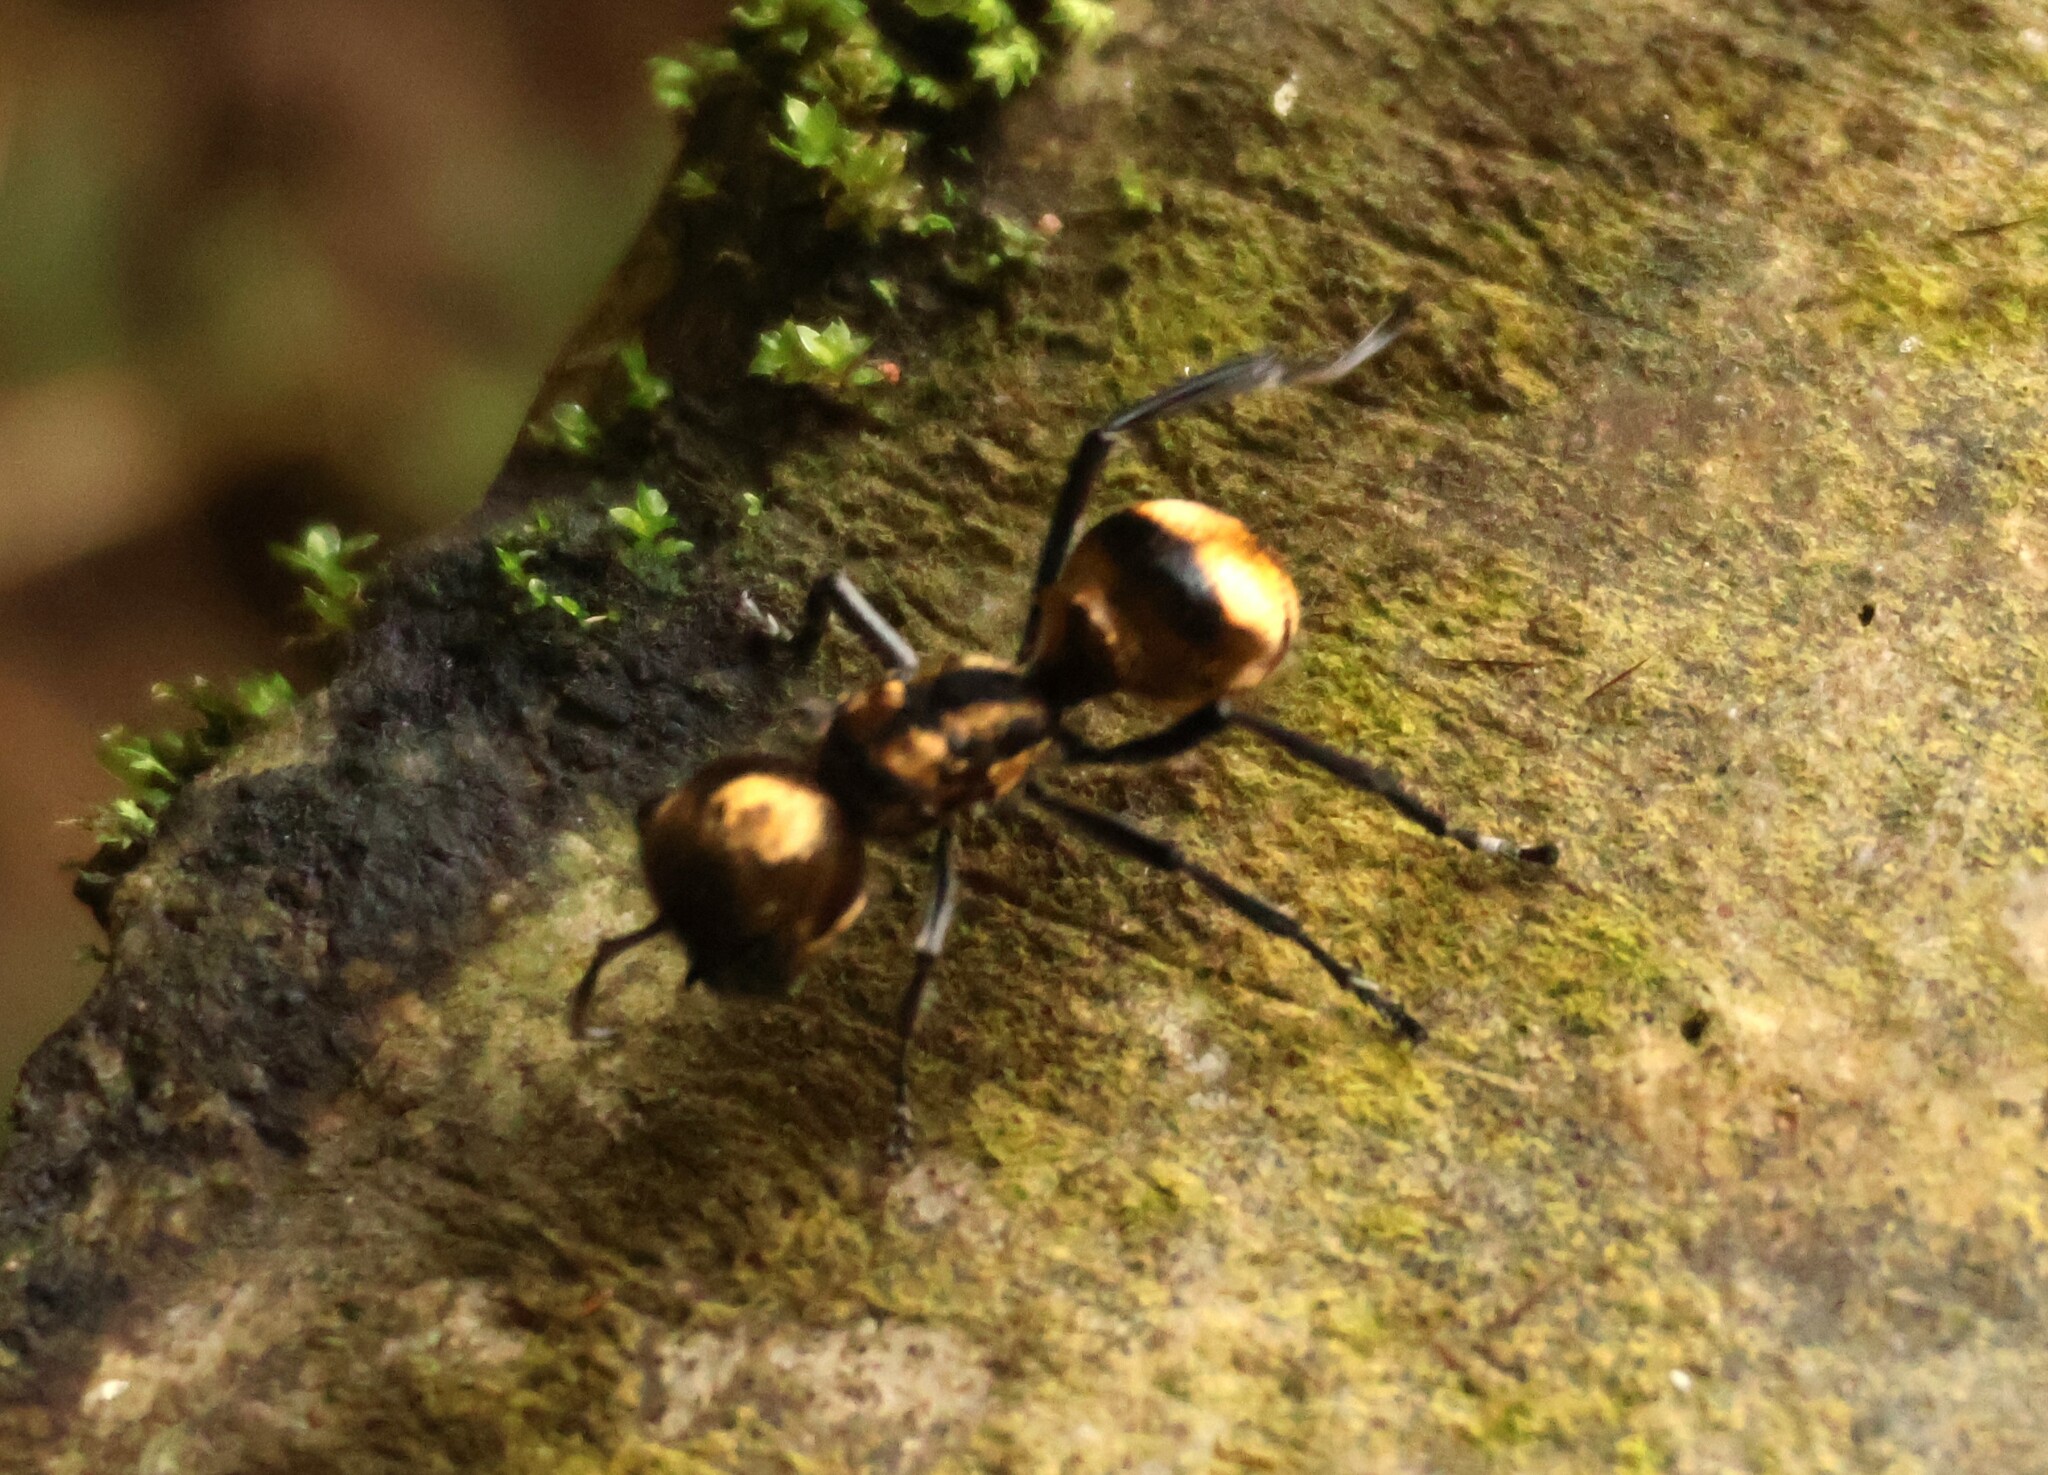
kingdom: Animalia
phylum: Arthropoda
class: Insecta
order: Hymenoptera
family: Mutillidae
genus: Pappognatha
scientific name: Pappognatha
